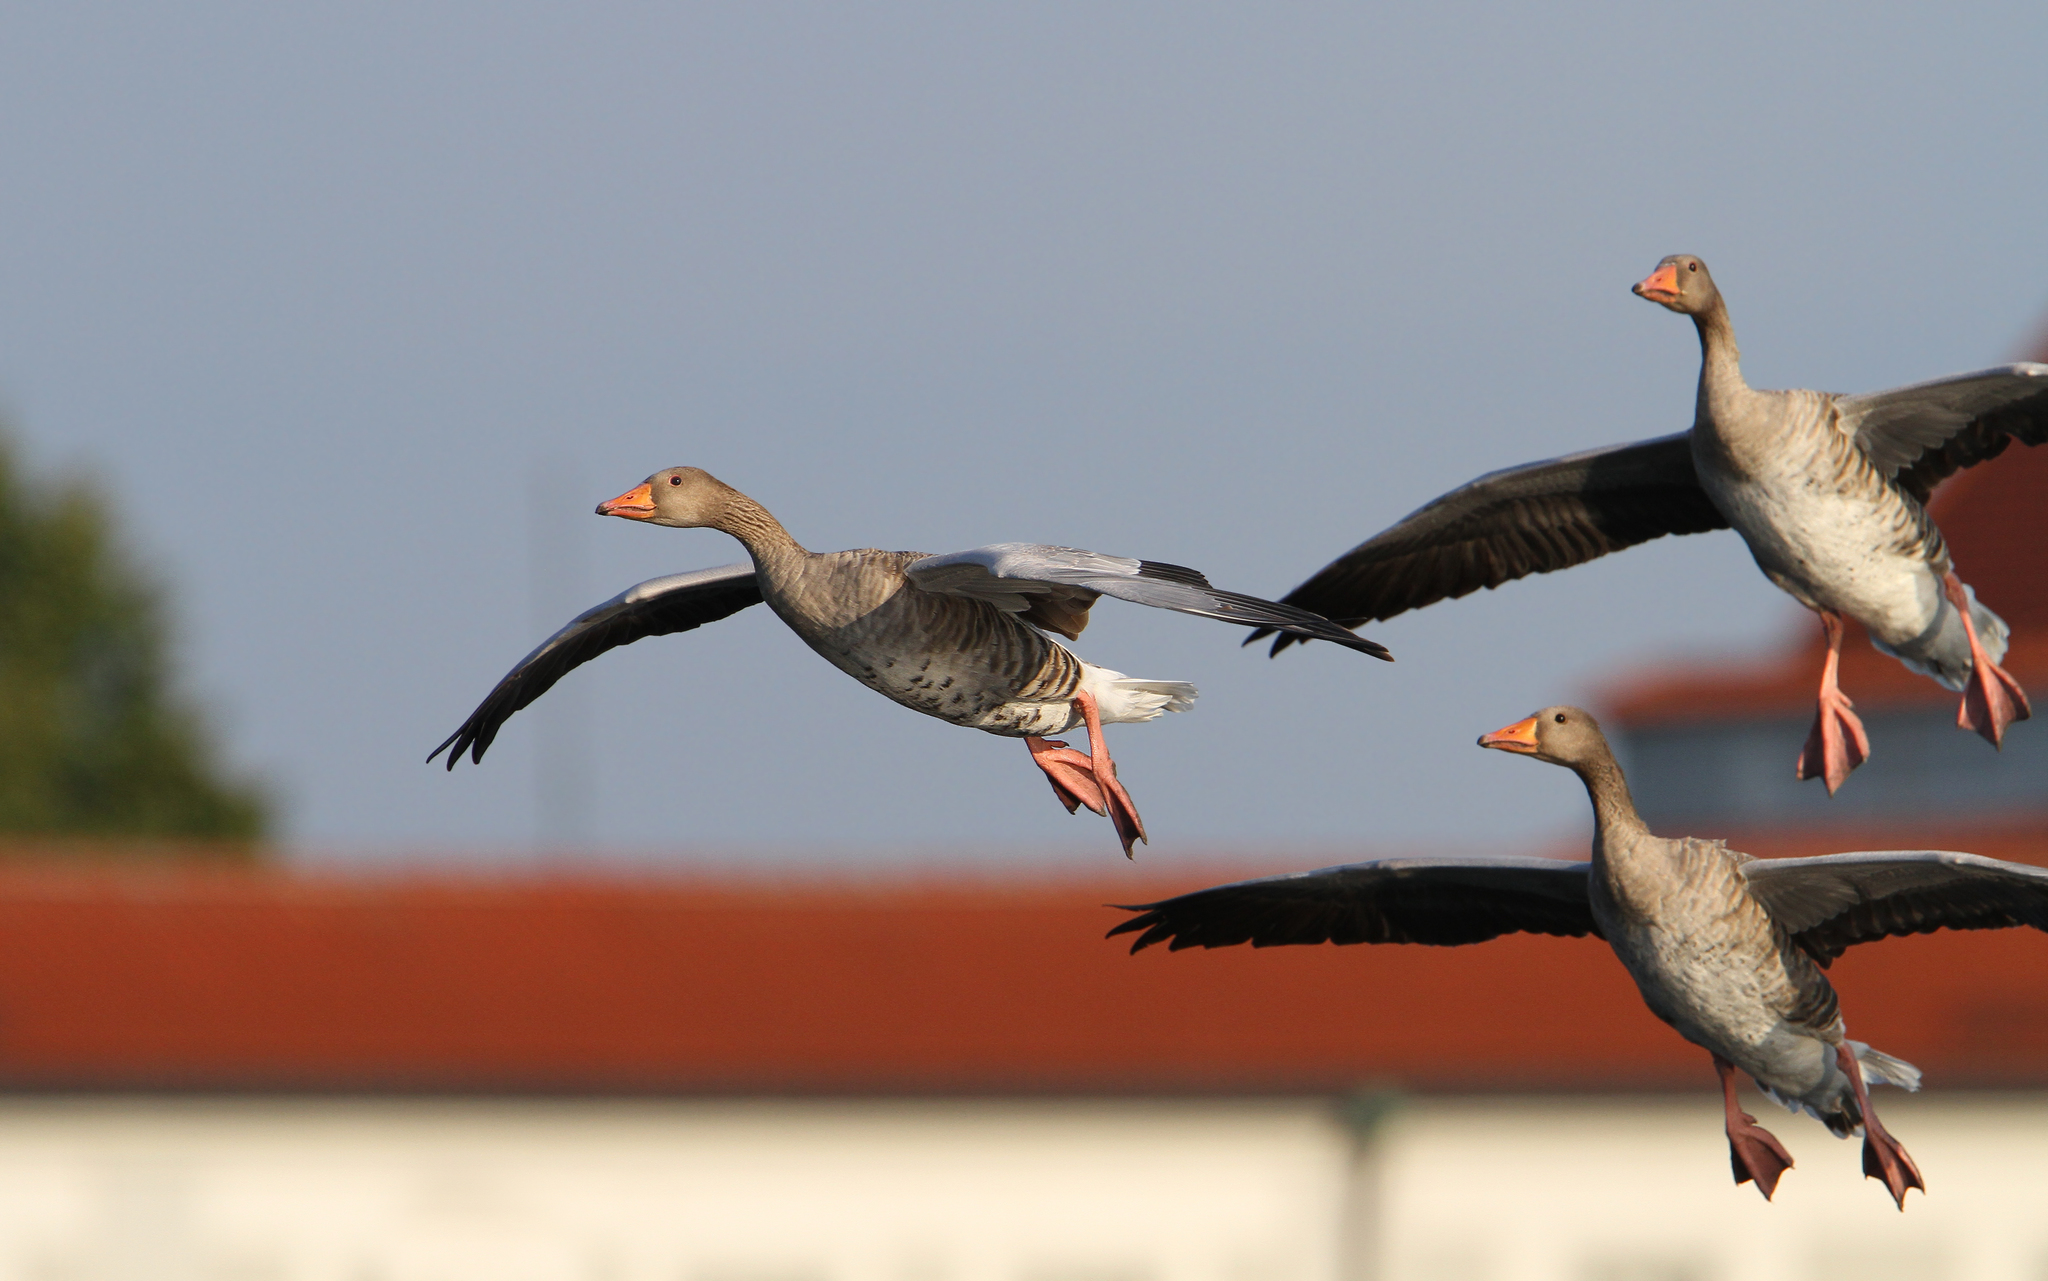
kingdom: Animalia
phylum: Chordata
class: Aves
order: Anseriformes
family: Anatidae
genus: Anser
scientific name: Anser anser
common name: Greylag goose
